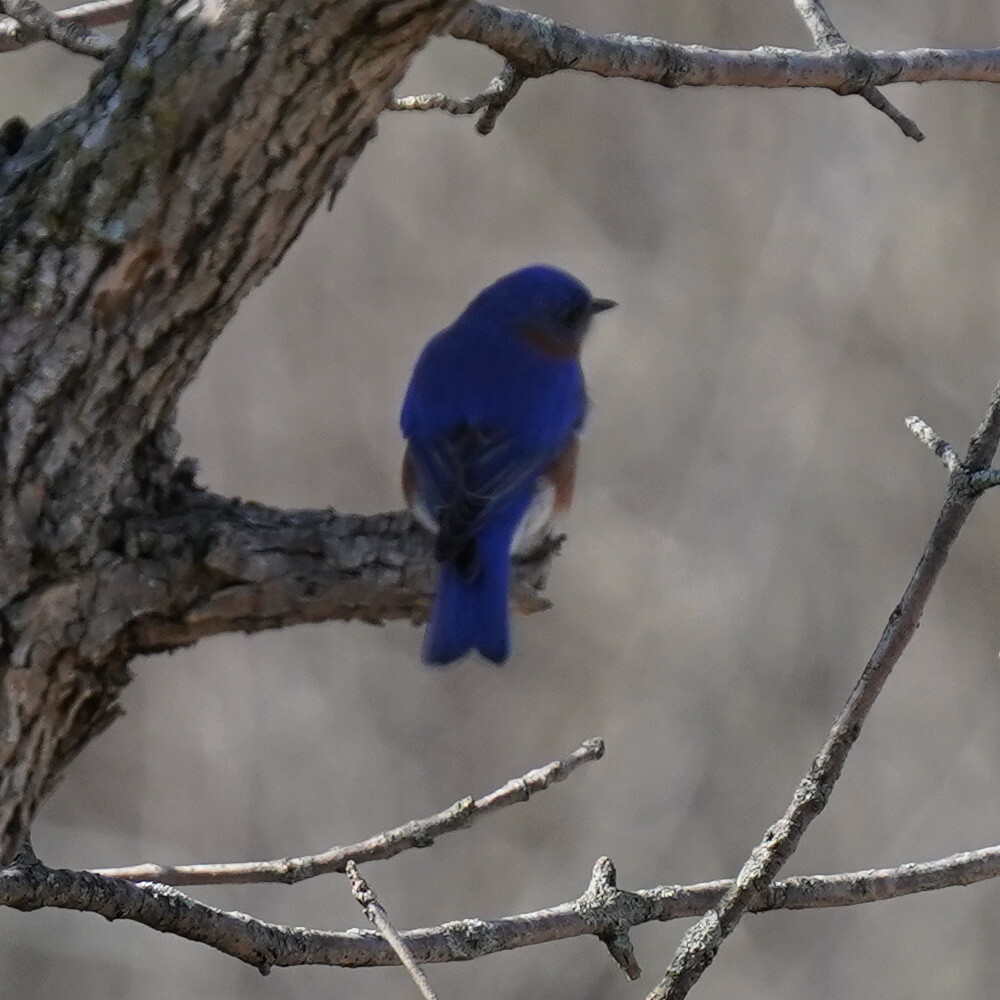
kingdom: Animalia
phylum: Chordata
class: Aves
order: Passeriformes
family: Turdidae
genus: Sialia
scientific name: Sialia sialis
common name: Eastern bluebird
